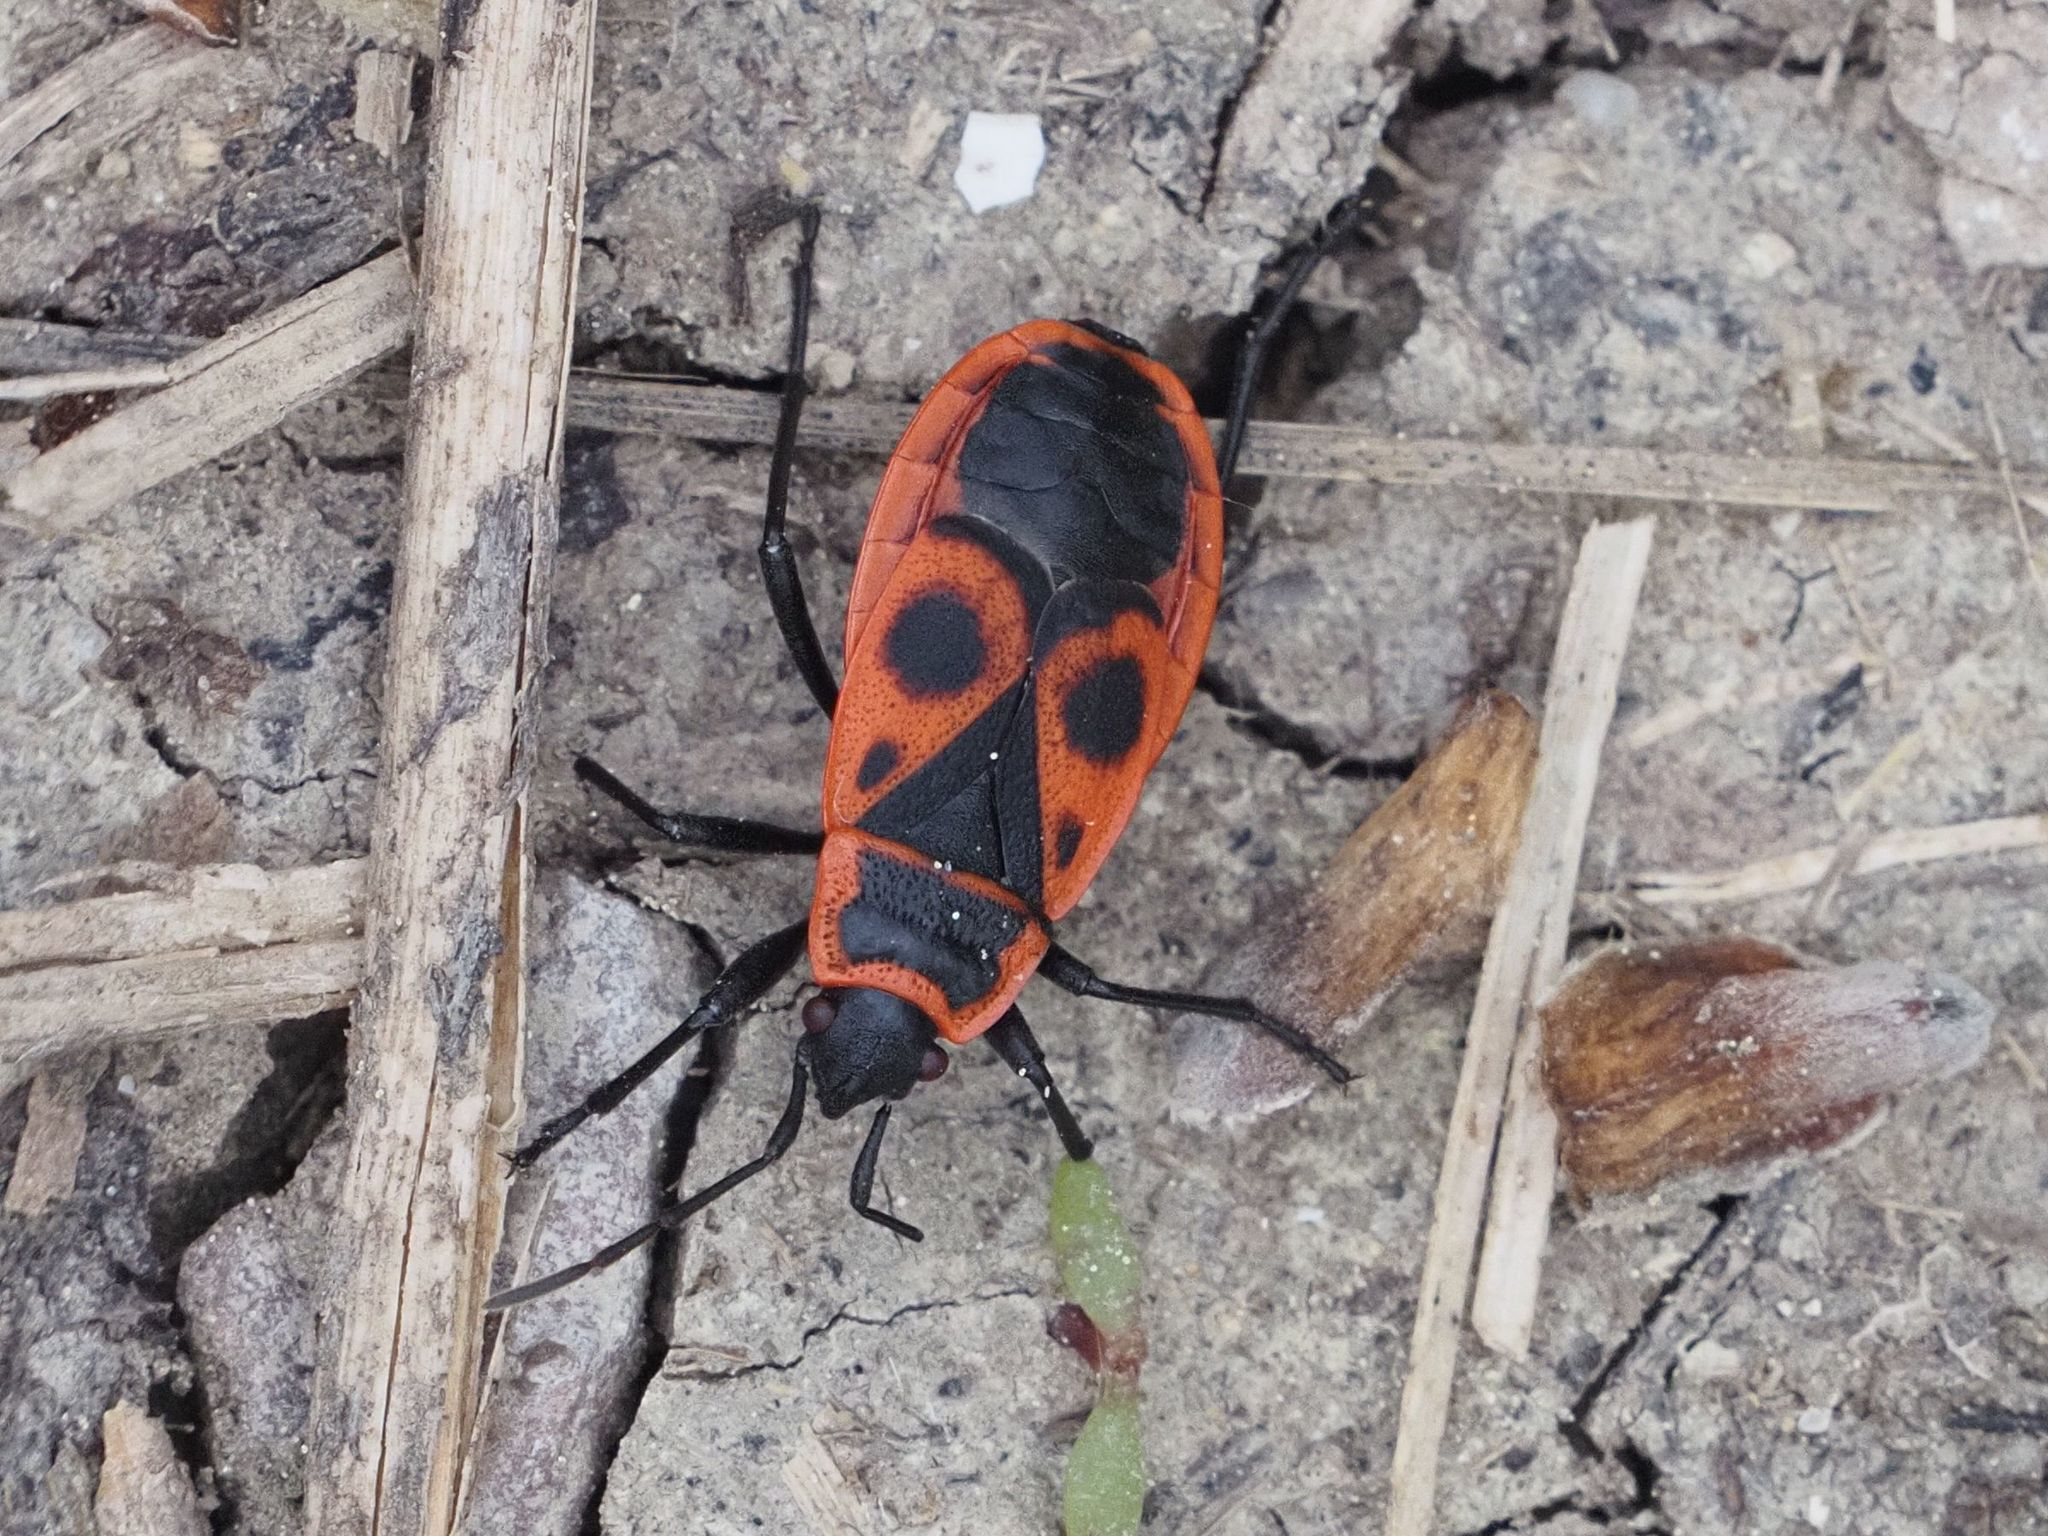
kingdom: Animalia
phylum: Arthropoda
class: Insecta
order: Hemiptera
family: Pyrrhocoridae
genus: Pyrrhocoris
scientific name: Pyrrhocoris apterus
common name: Firebug
